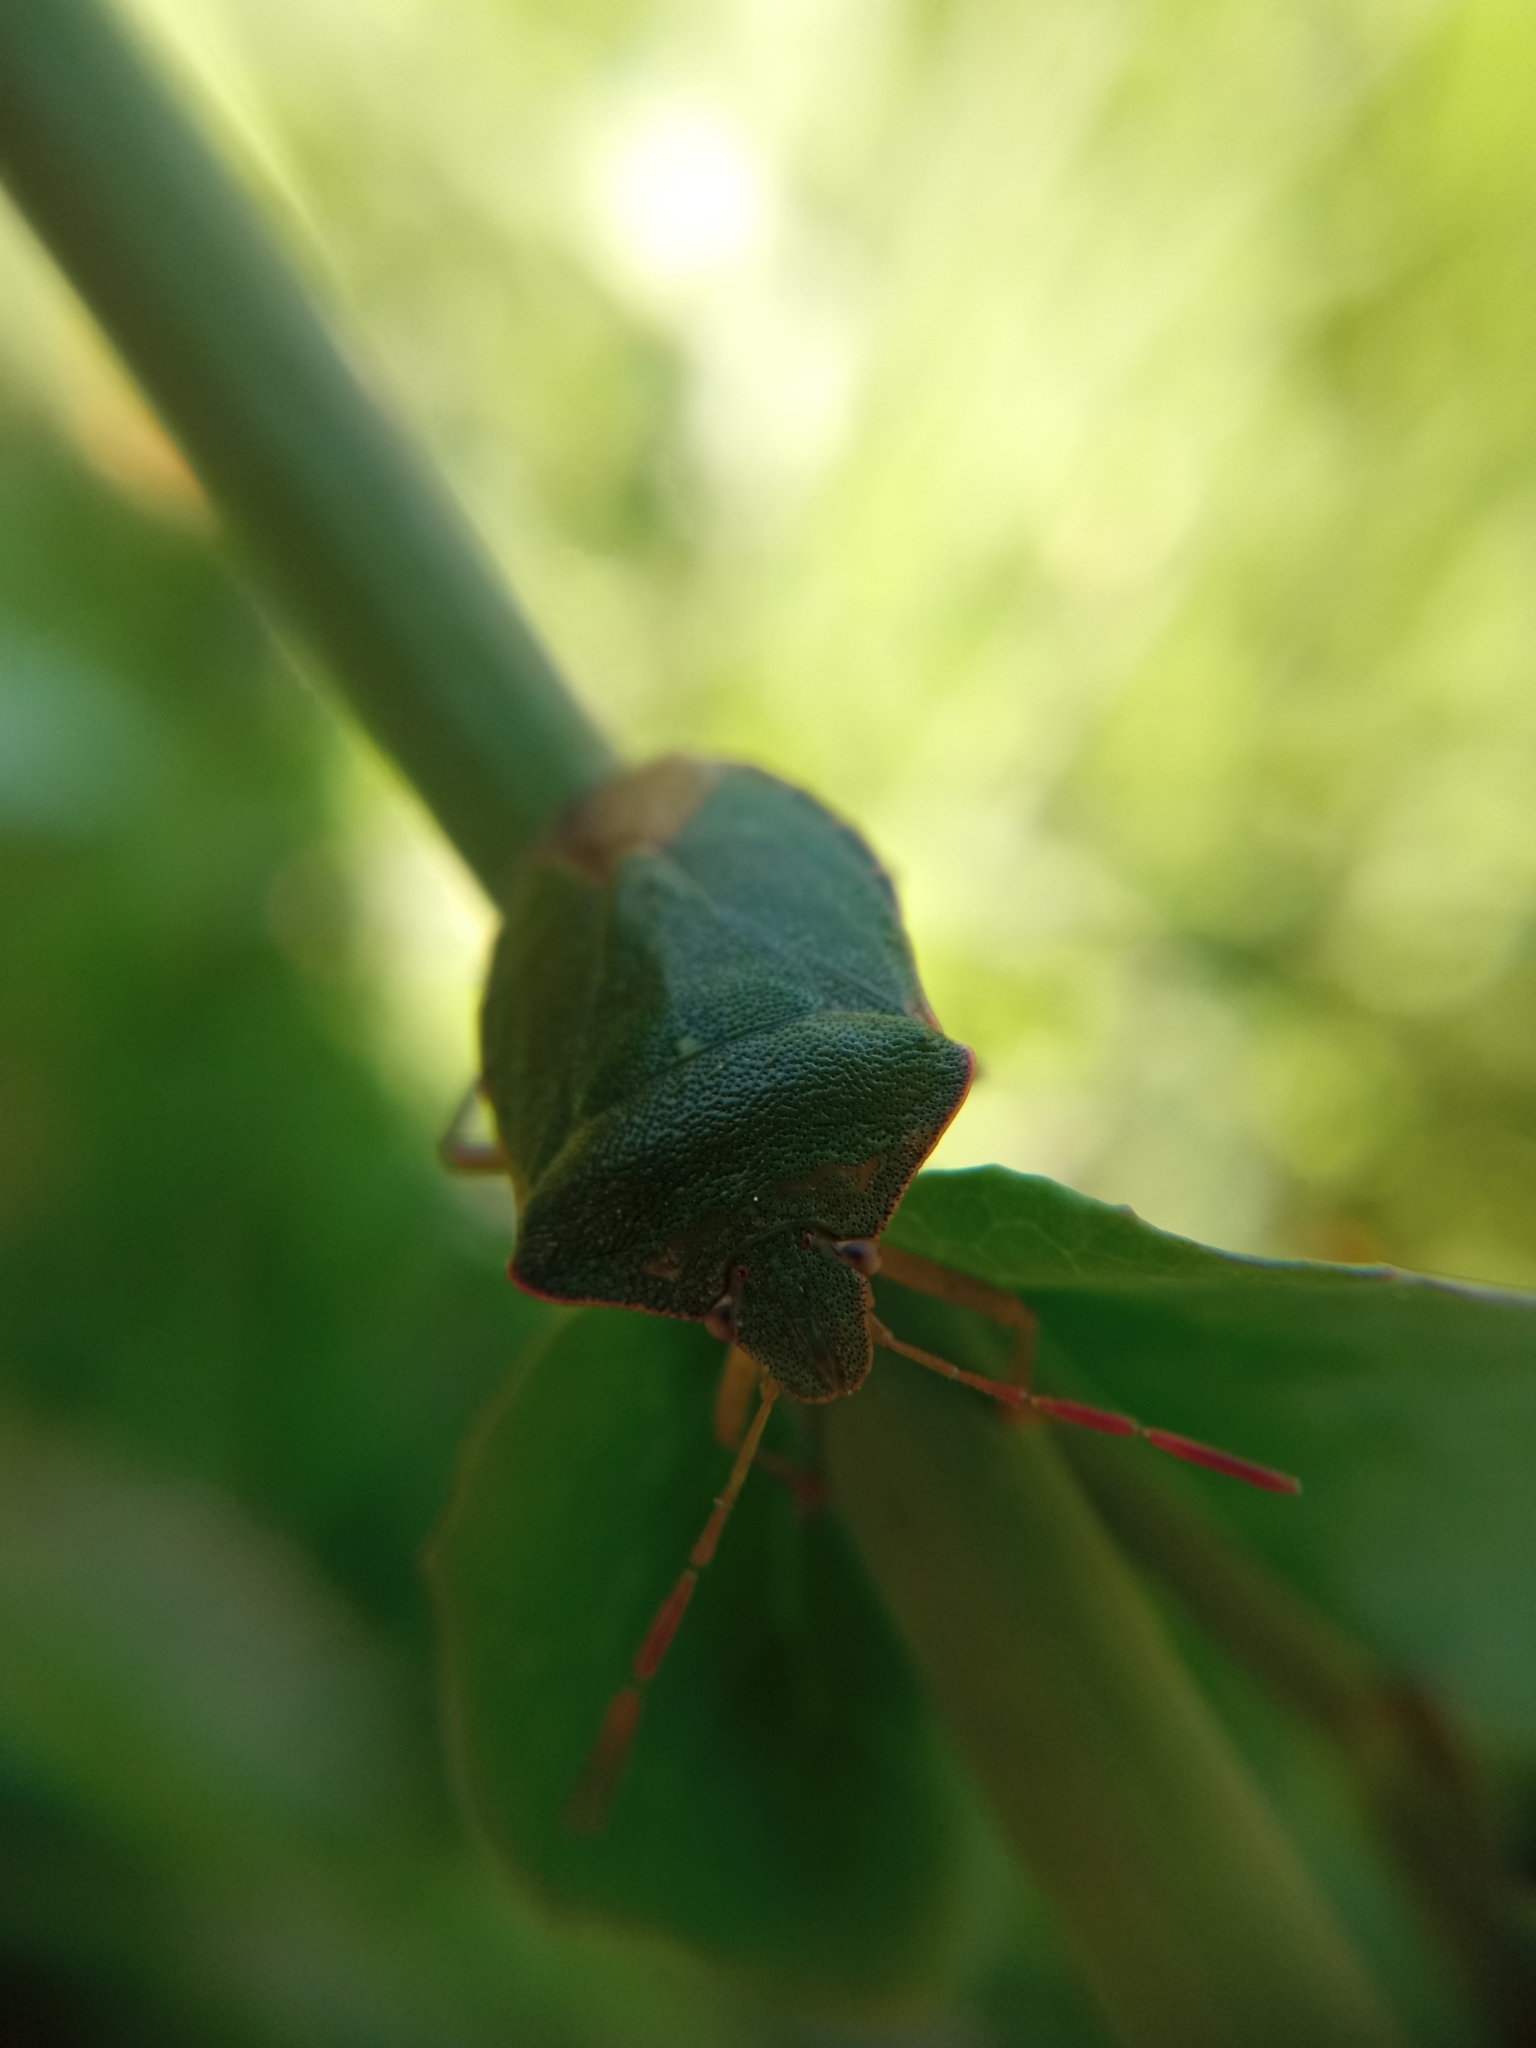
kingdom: Animalia
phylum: Arthropoda
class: Insecta
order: Hemiptera
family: Pentatomidae
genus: Palomena
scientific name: Palomena prasina
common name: Green shieldbug
